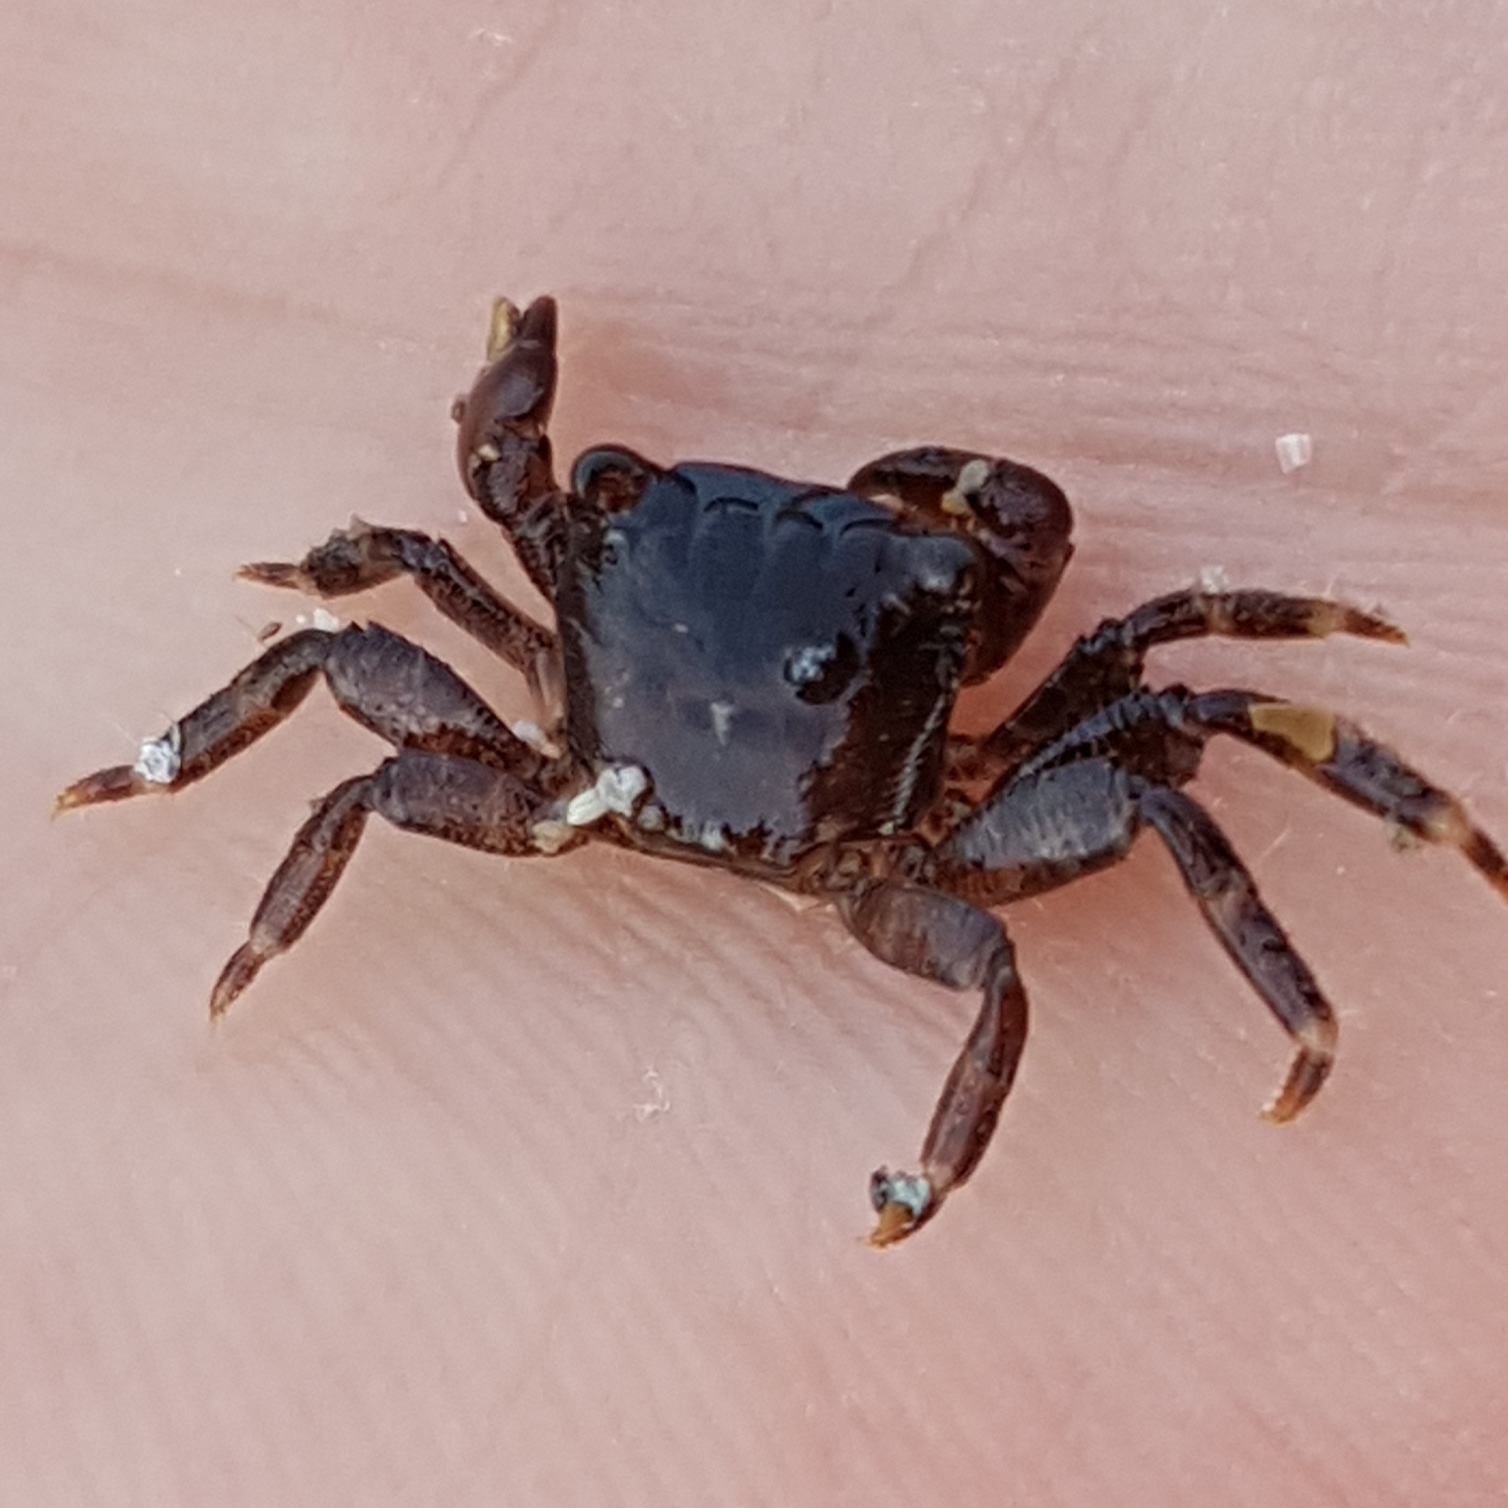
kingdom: Animalia
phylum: Arthropoda
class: Malacostraca
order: Decapoda
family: Grapsidae
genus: Pachygrapsus
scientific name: Pachygrapsus marmoratus
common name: Marbled rock crab
